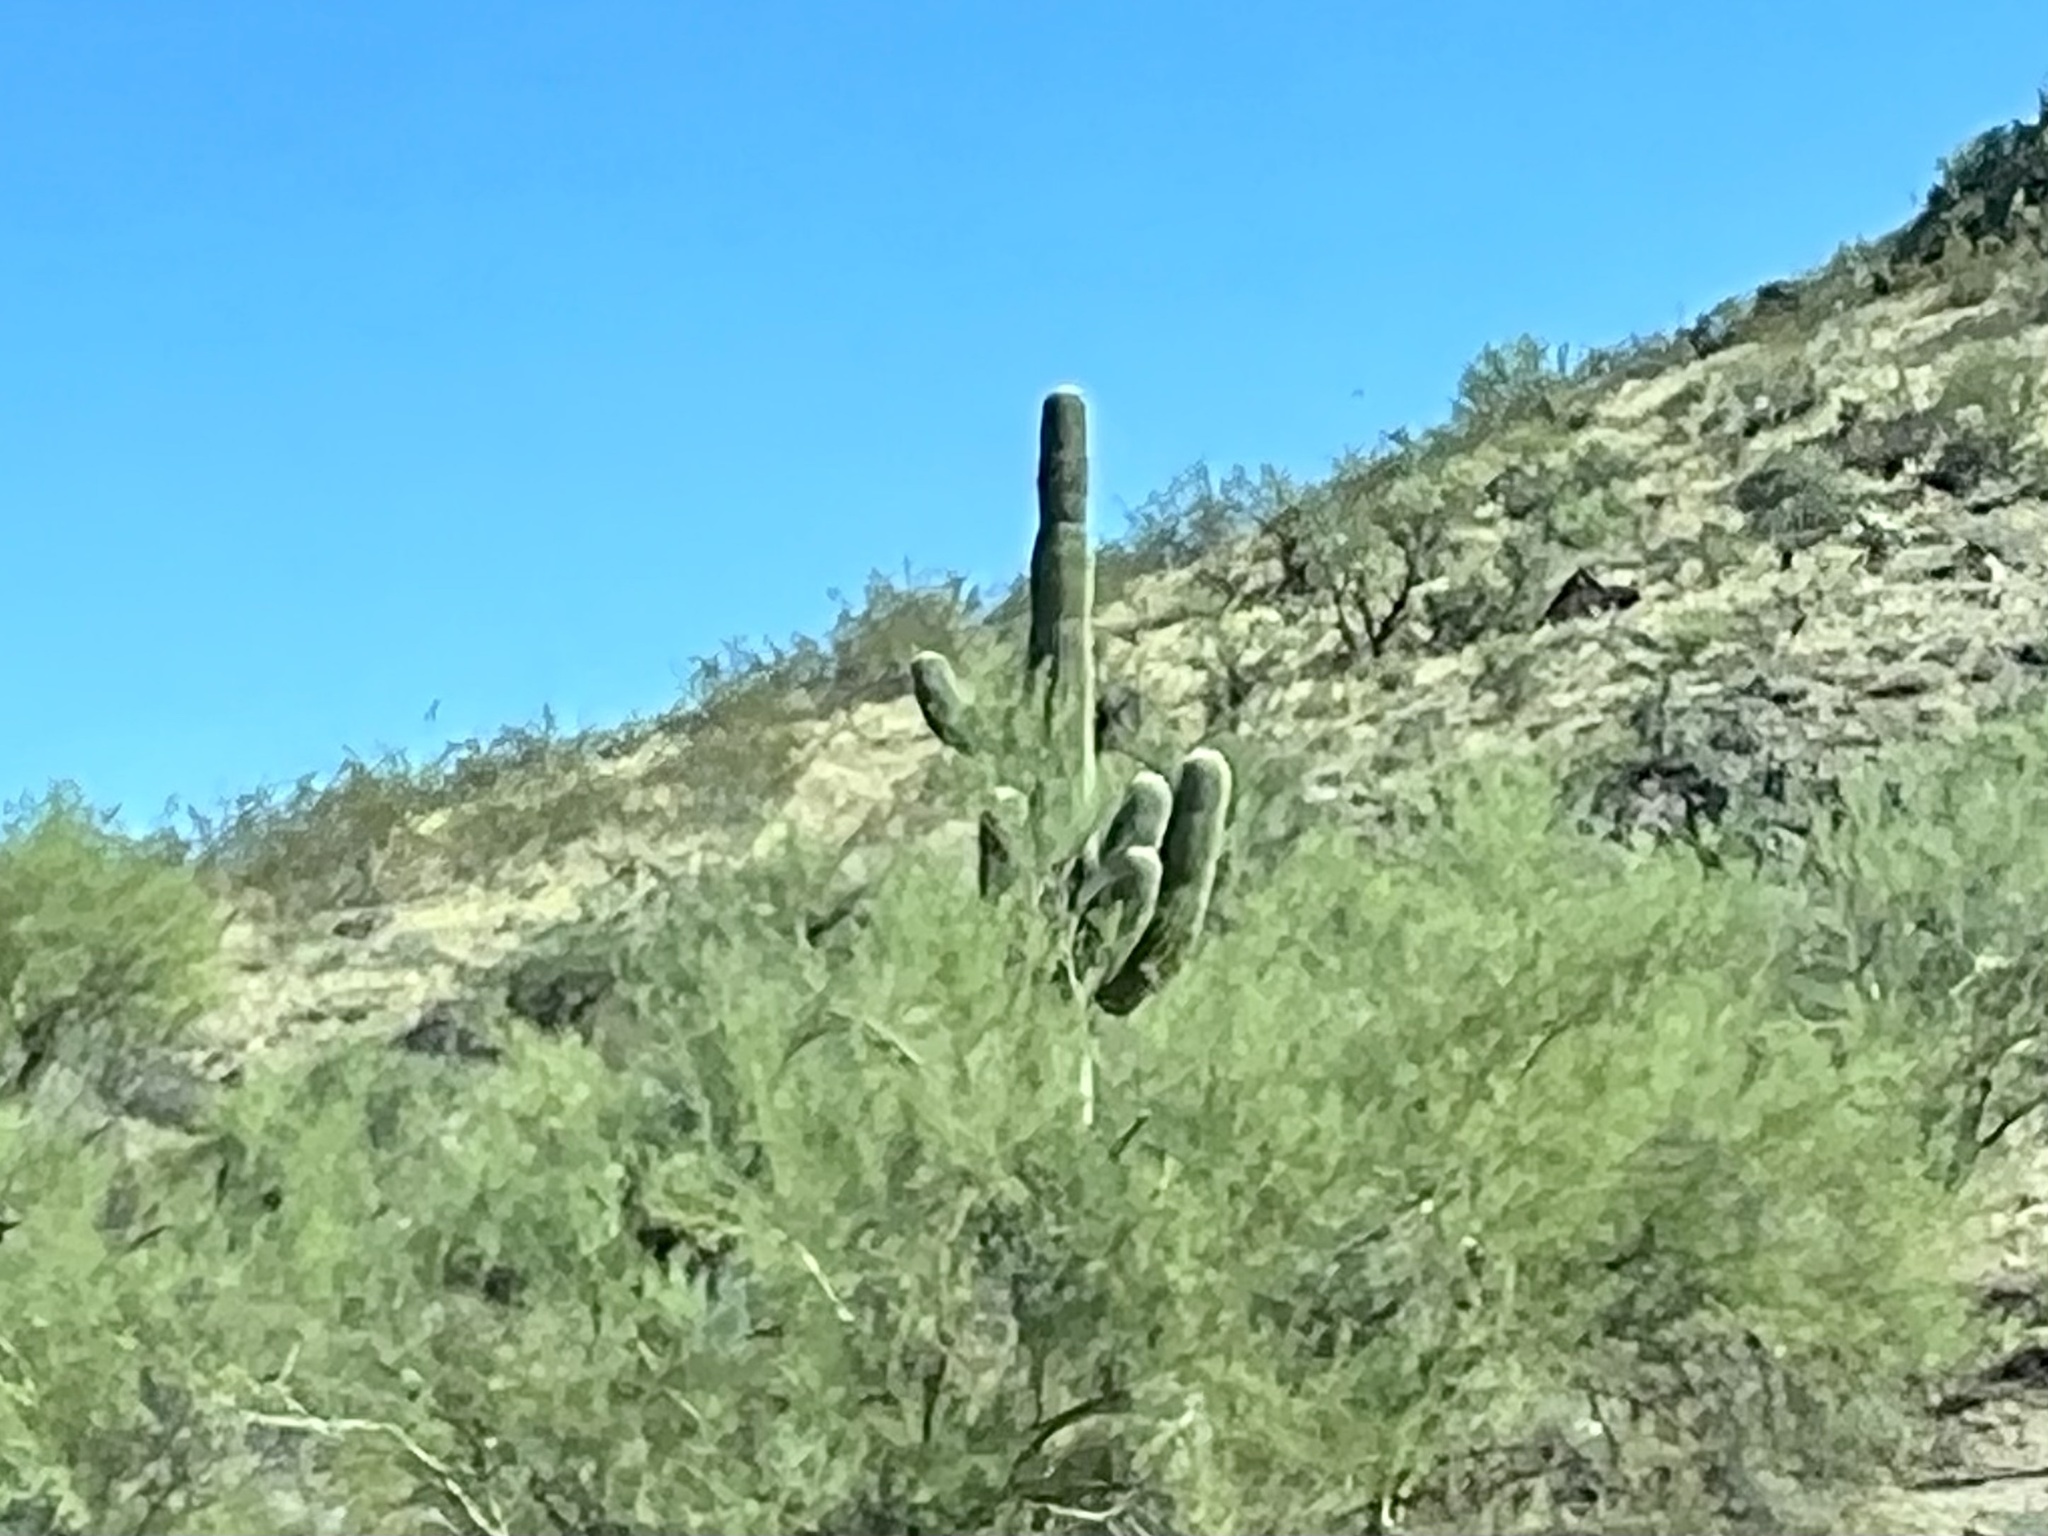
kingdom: Plantae
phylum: Tracheophyta
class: Magnoliopsida
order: Caryophyllales
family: Cactaceae
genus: Carnegiea
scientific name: Carnegiea gigantea
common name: Saguaro
